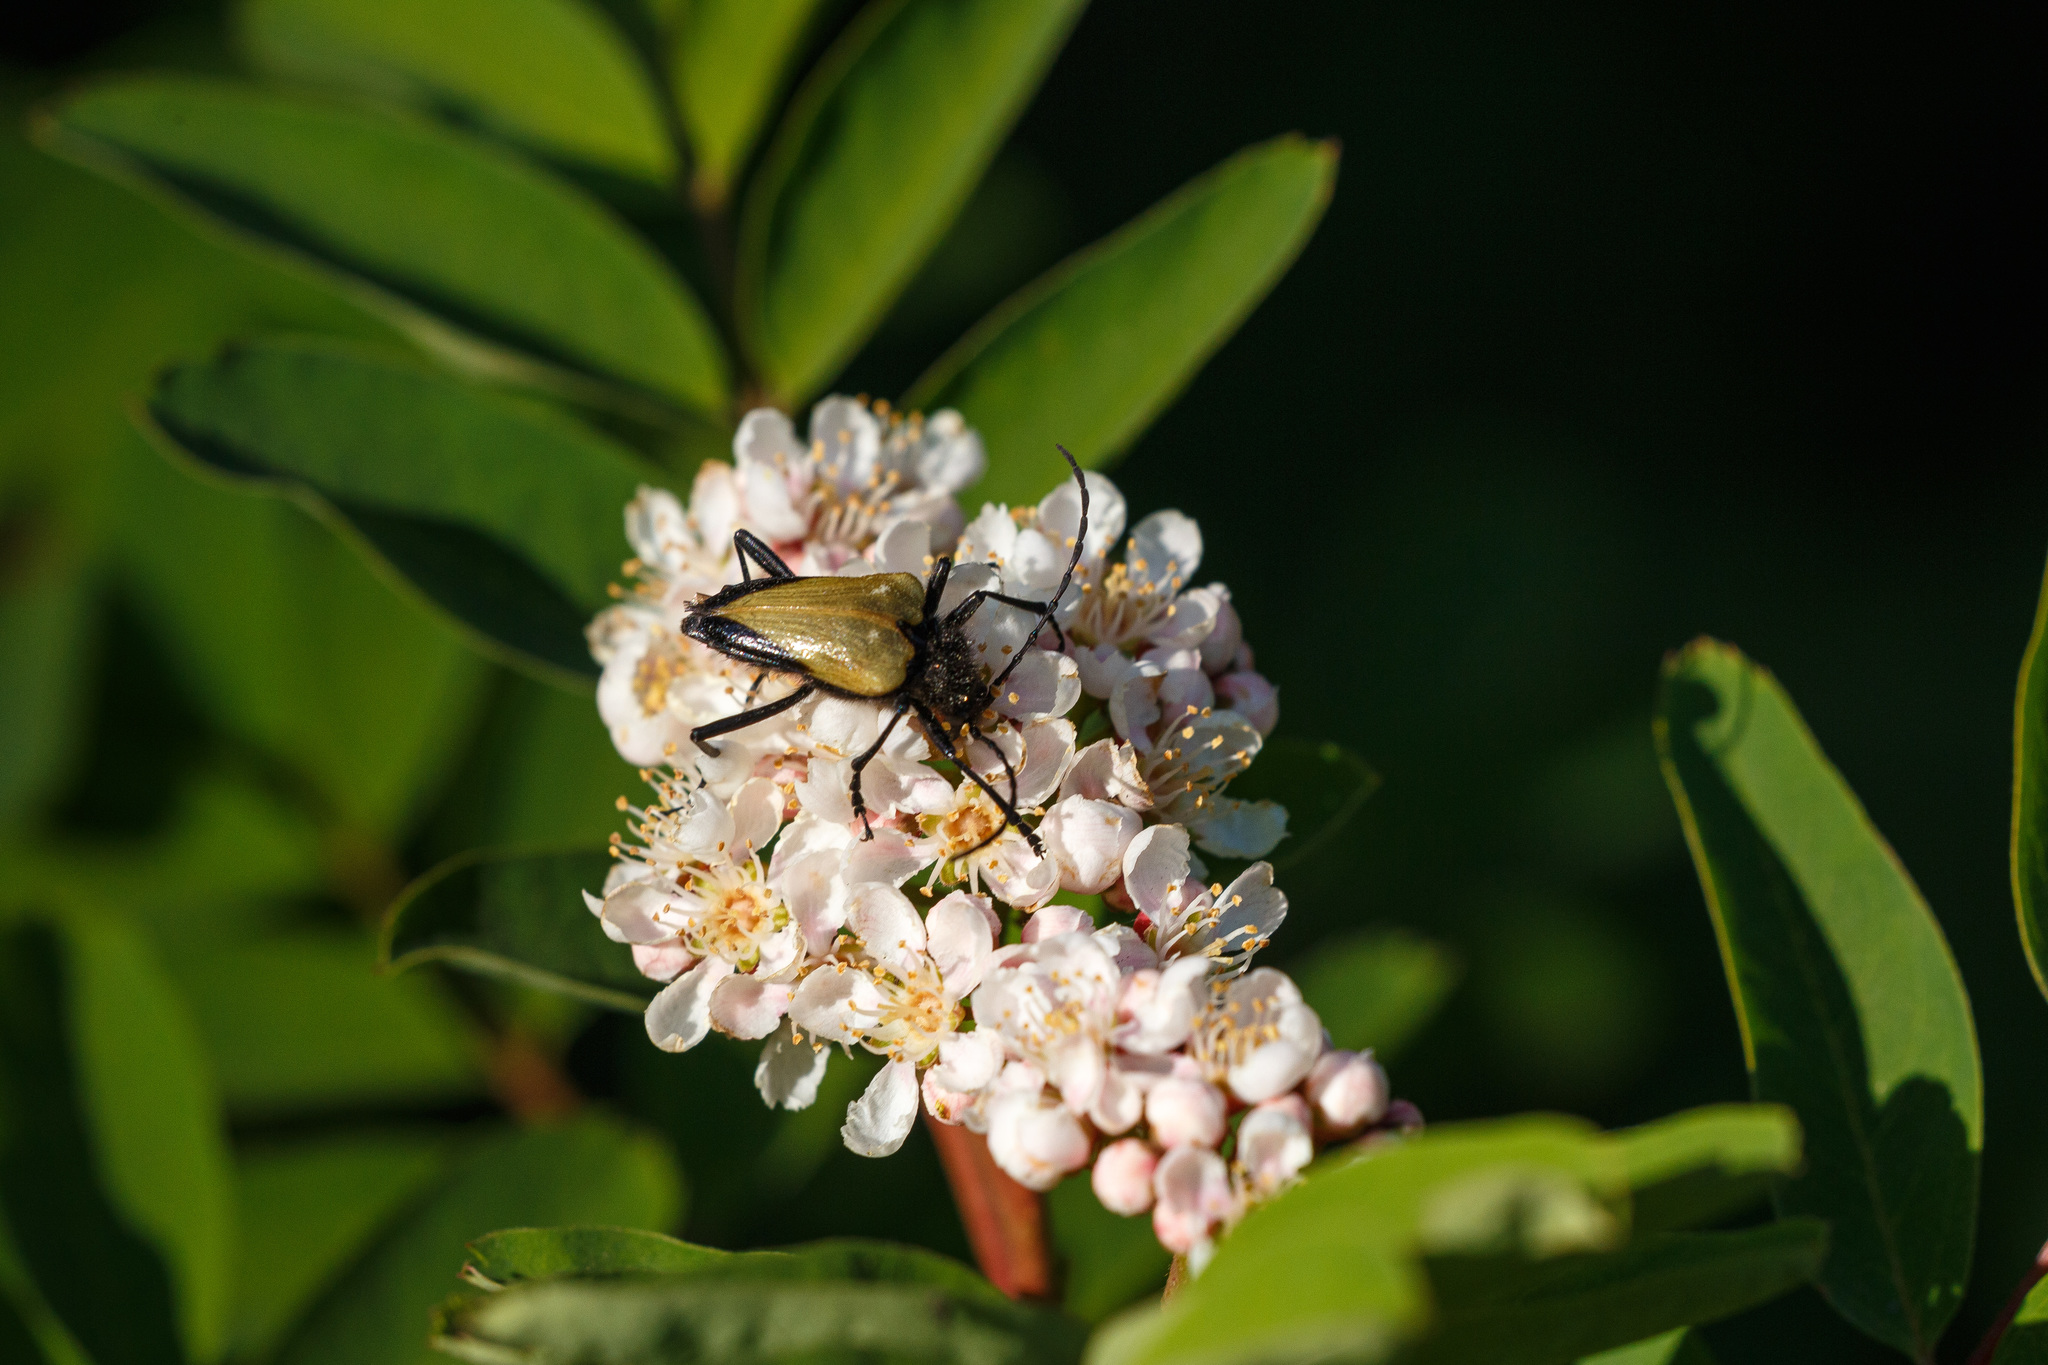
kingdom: Animalia
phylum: Arthropoda
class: Insecta
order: Coleoptera
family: Cerambycidae
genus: Pachyta
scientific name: Pachyta armata
